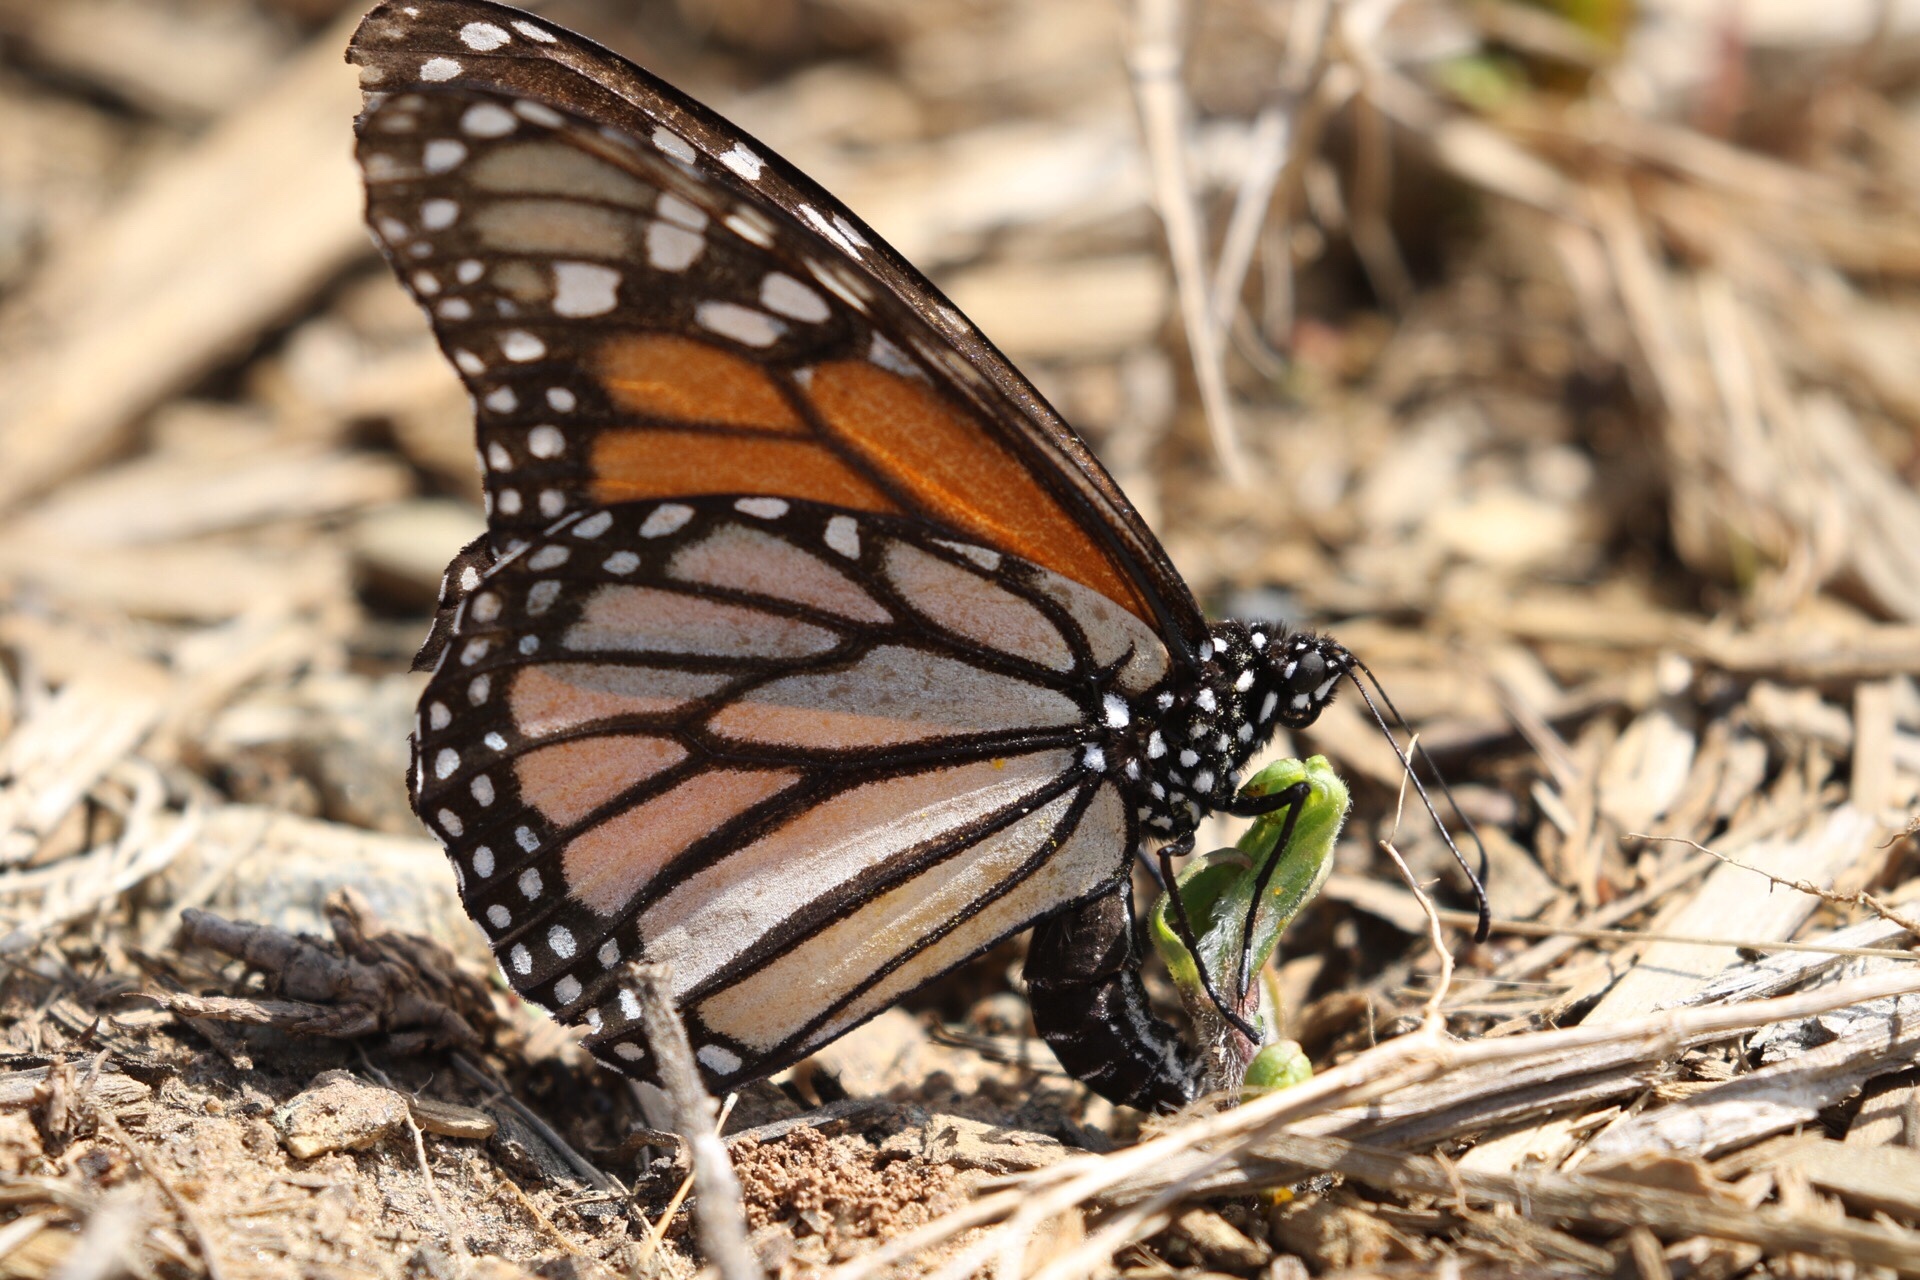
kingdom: Animalia
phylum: Arthropoda
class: Insecta
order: Lepidoptera
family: Nymphalidae
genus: Danaus
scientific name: Danaus plexippus
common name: Monarch
